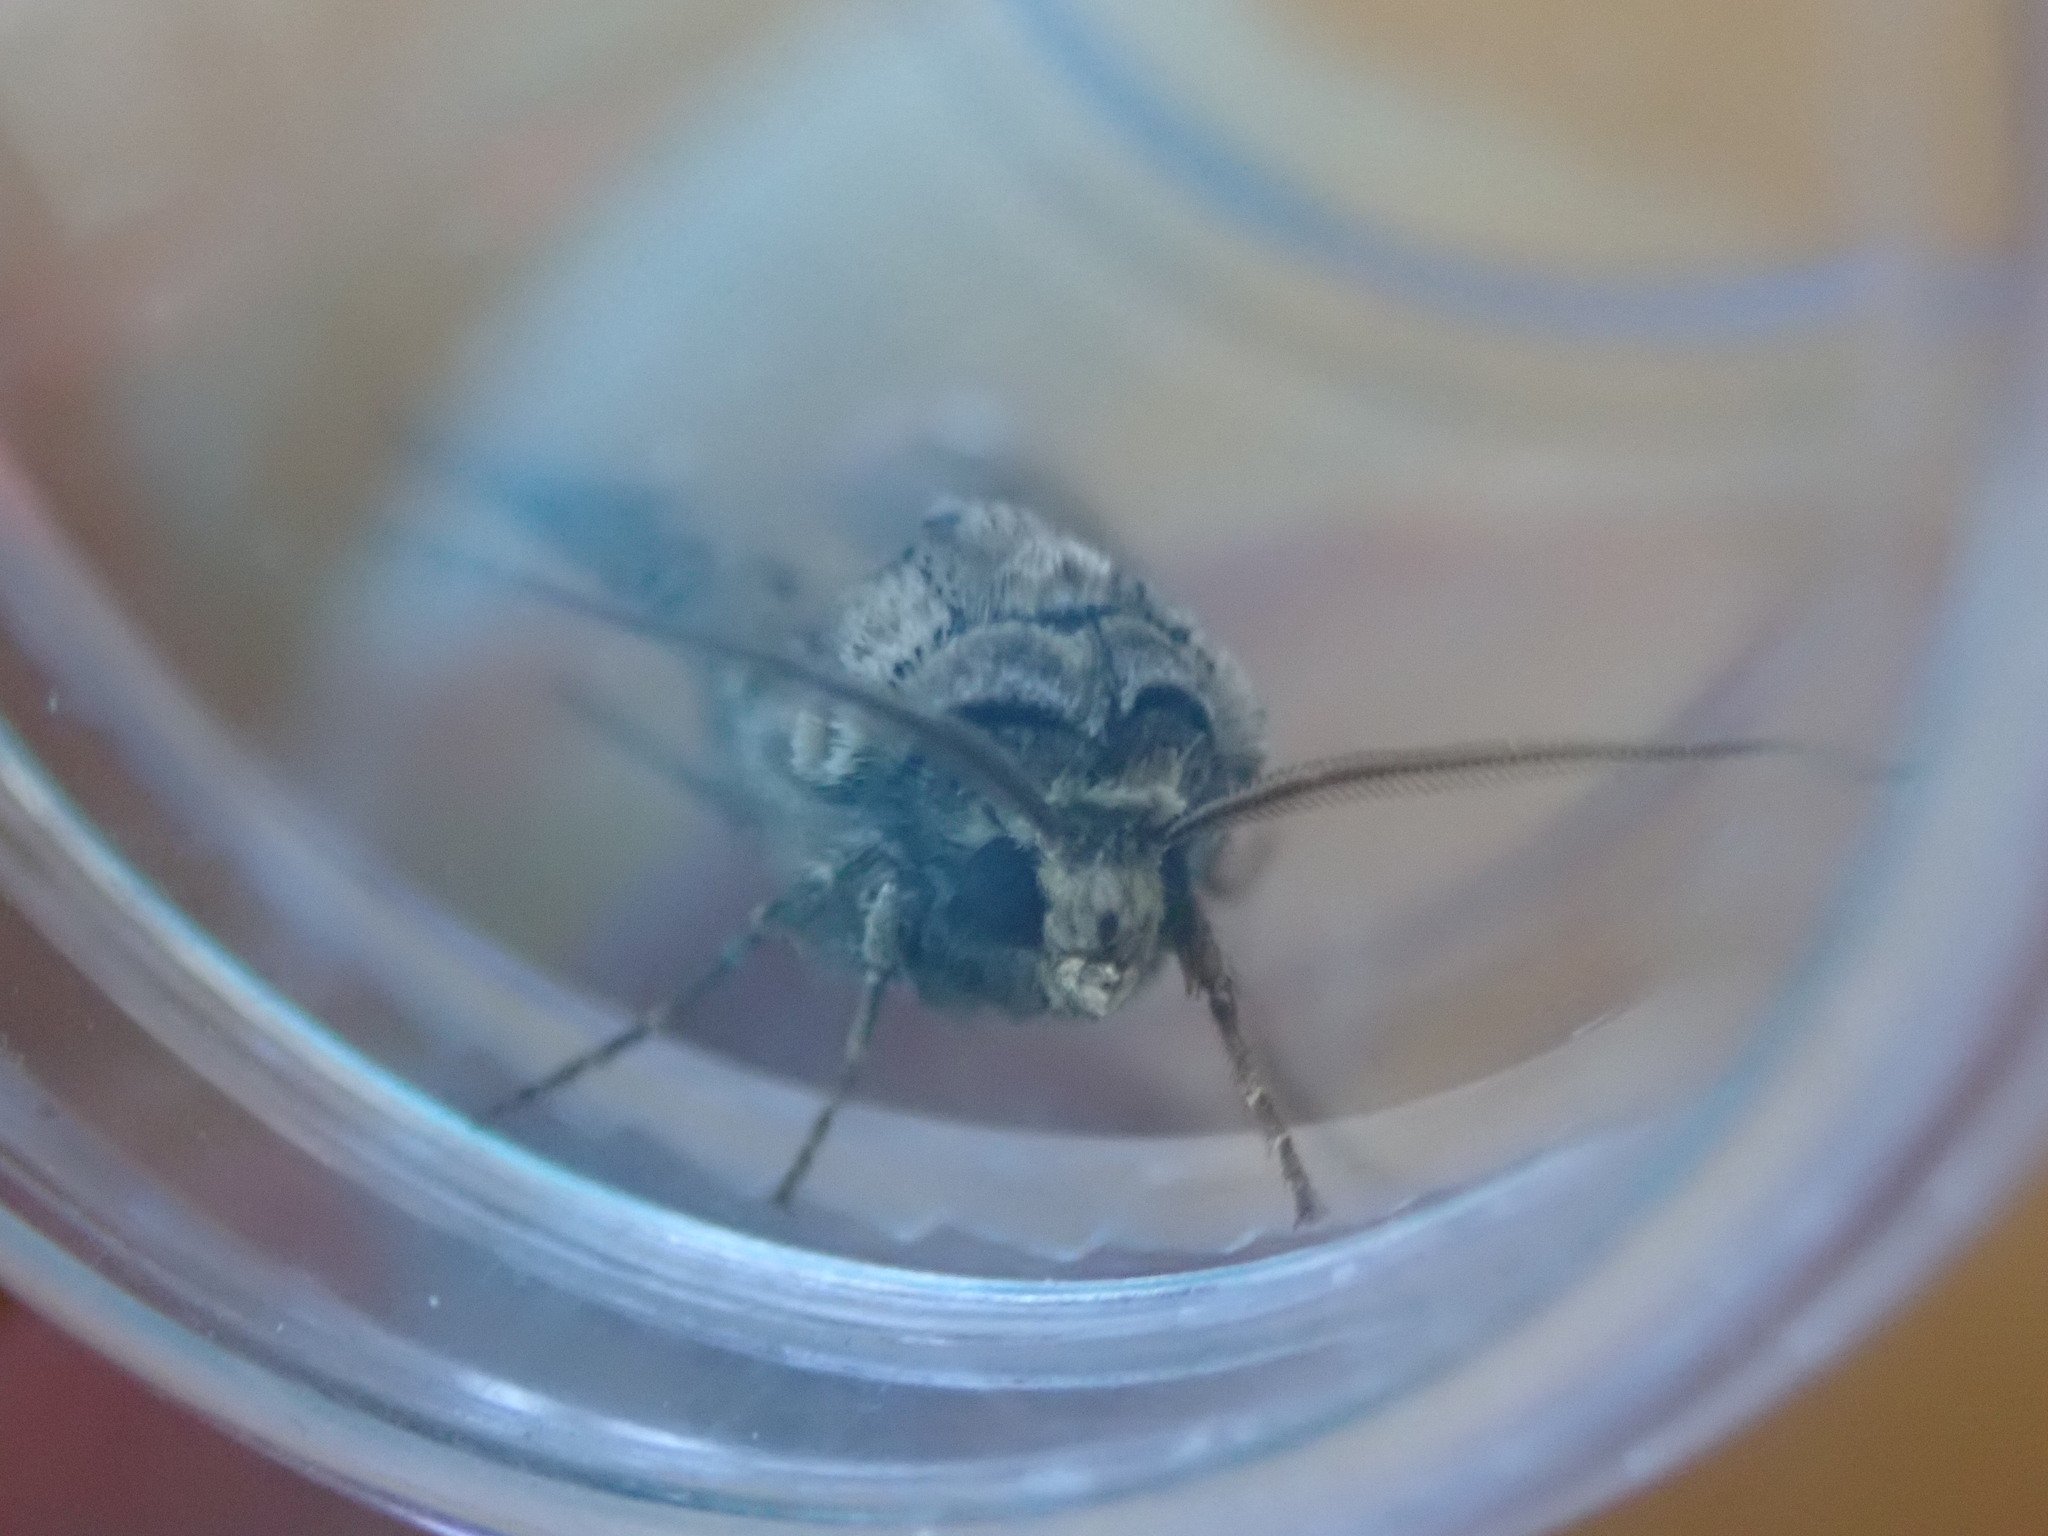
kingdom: Animalia
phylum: Arthropoda
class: Insecta
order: Lepidoptera
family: Noctuidae
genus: Agrotis
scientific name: Agrotis clavis
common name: Heart and club
